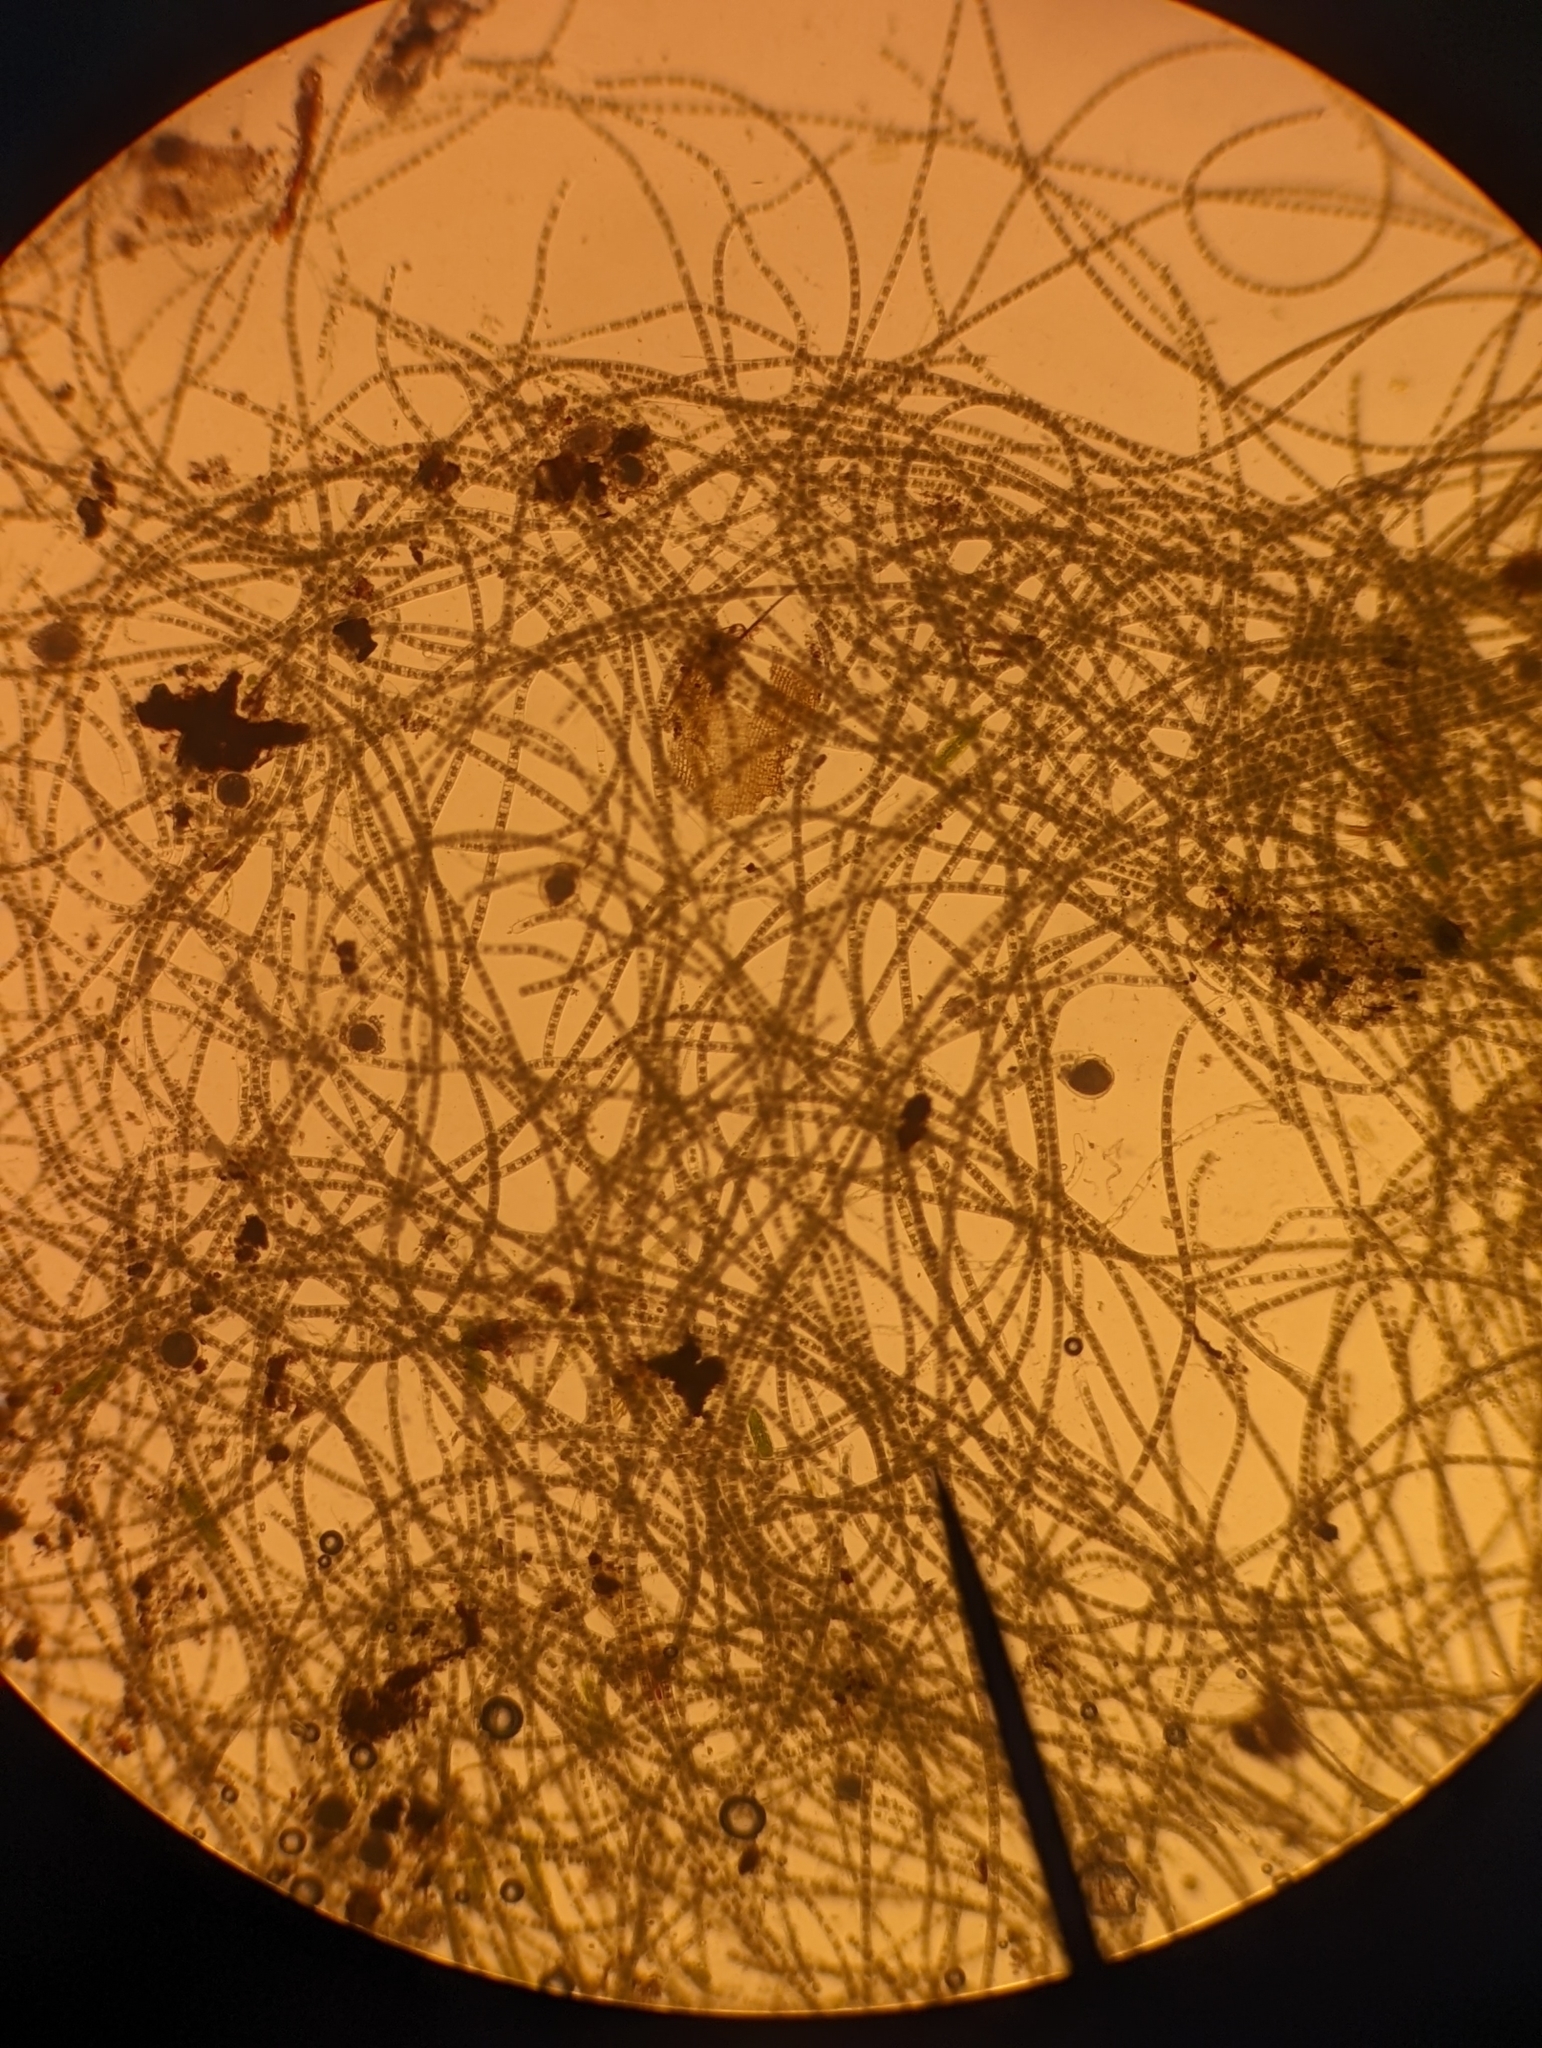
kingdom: Plantae
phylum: Charophyta
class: Zygnematophyceae
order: Zygnematales
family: Zygnemataceae
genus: Zygnema
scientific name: Zygnema
